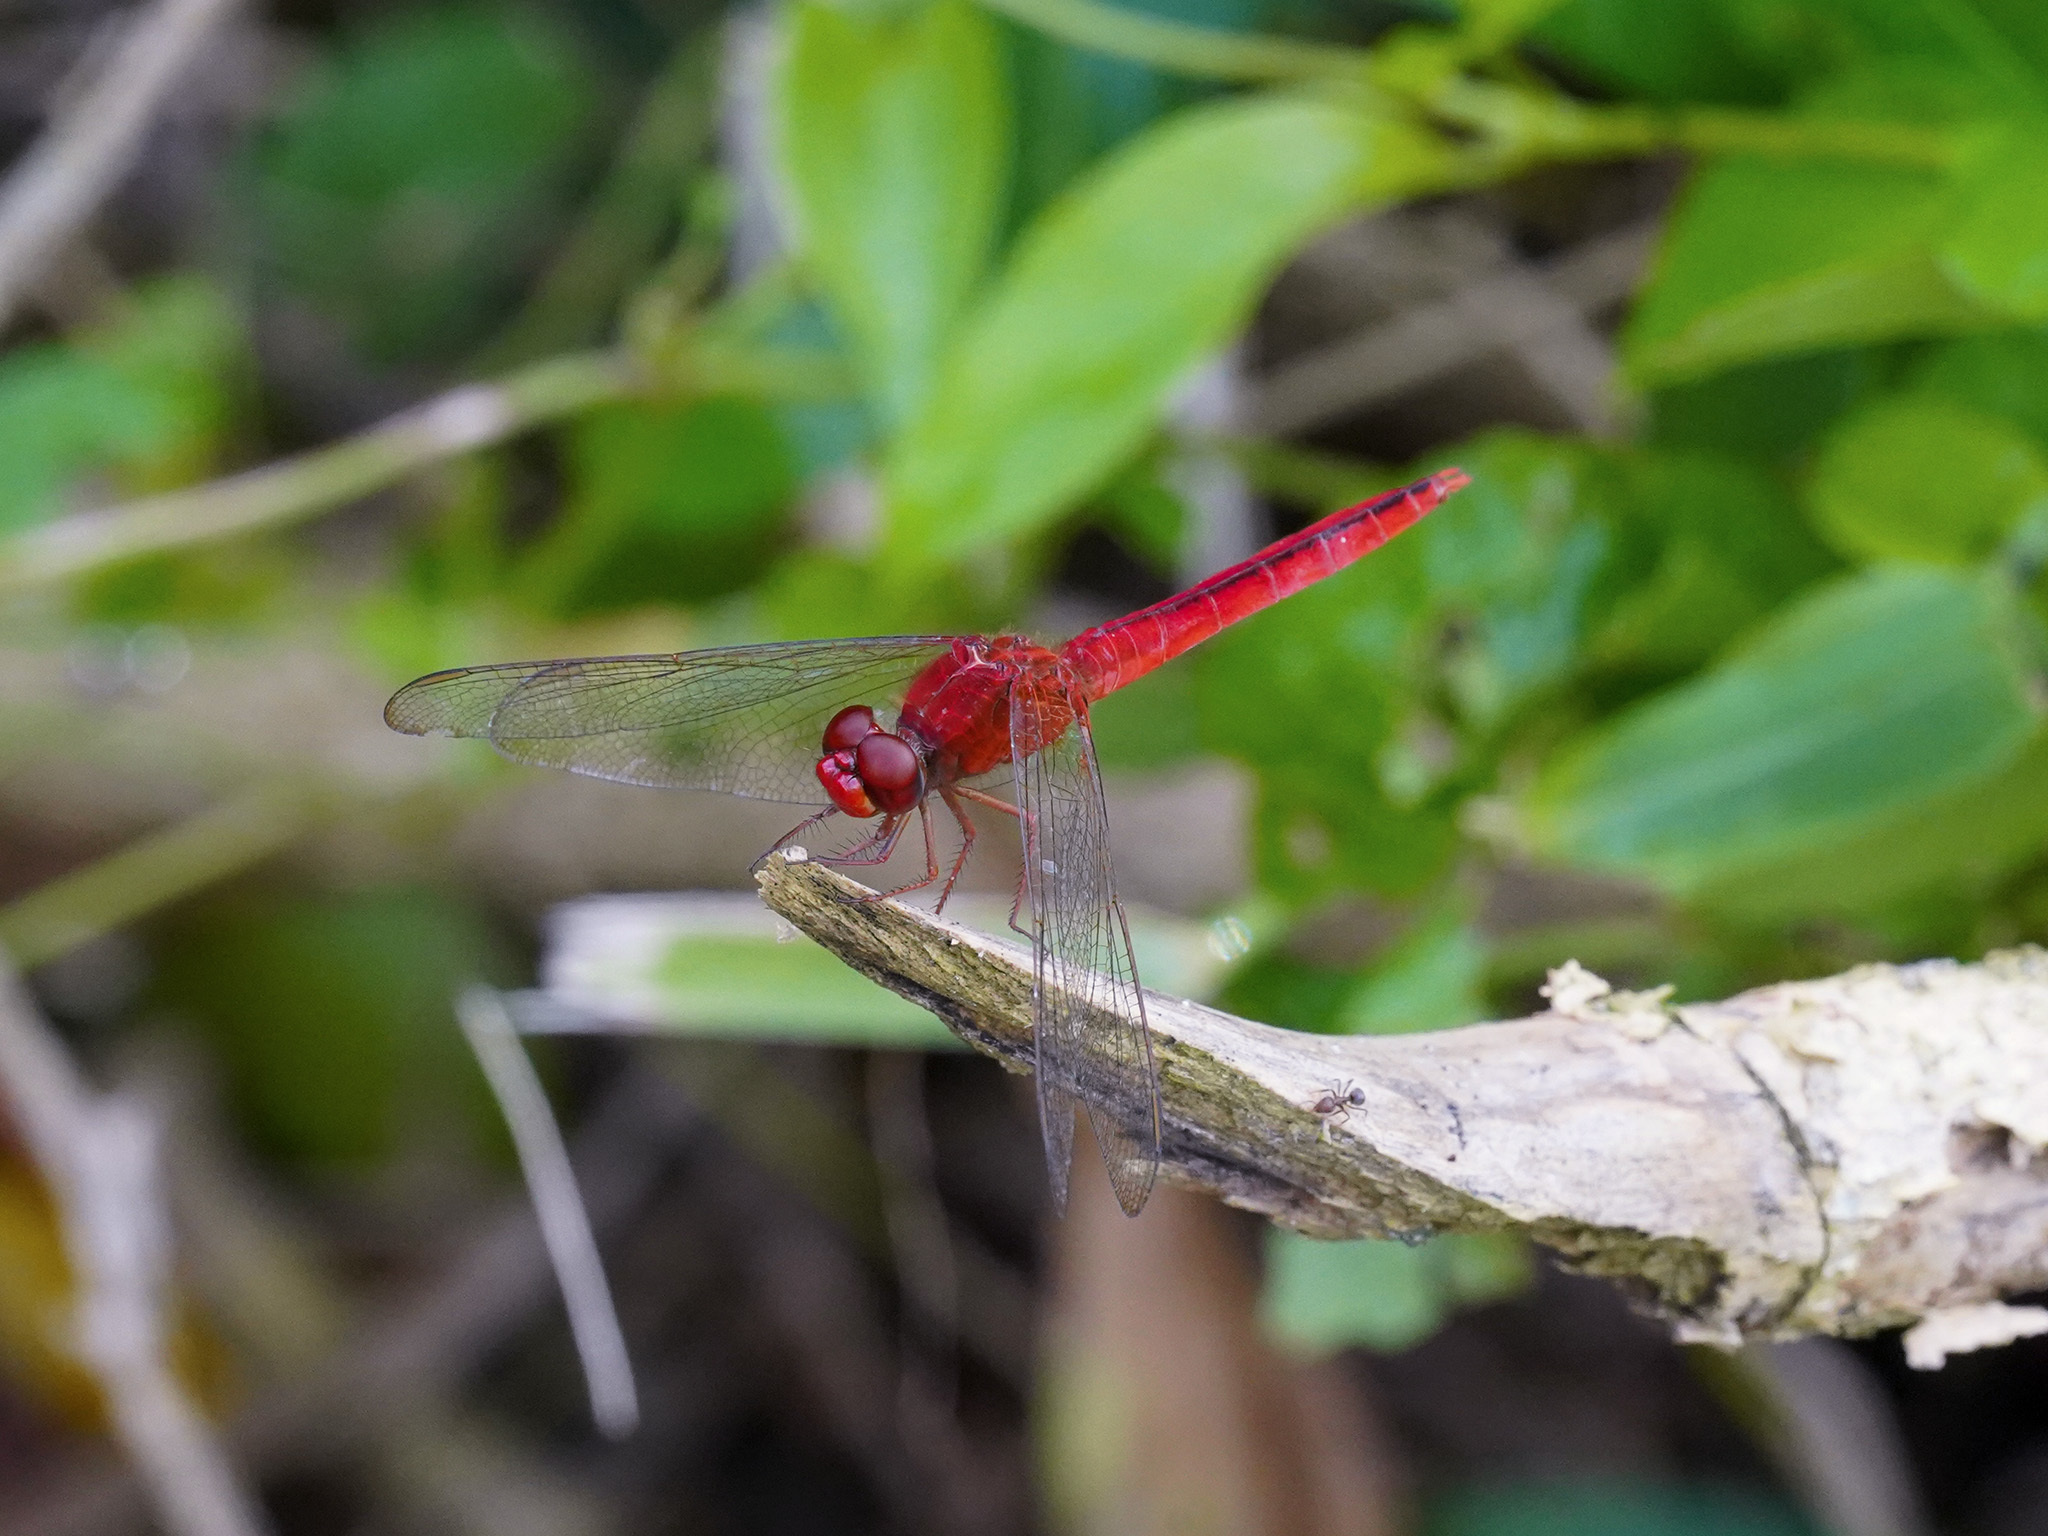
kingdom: Animalia
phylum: Arthropoda
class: Insecta
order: Odonata
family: Libellulidae
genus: Crocothemis
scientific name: Crocothemis servilia
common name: Scarlet skimmer
